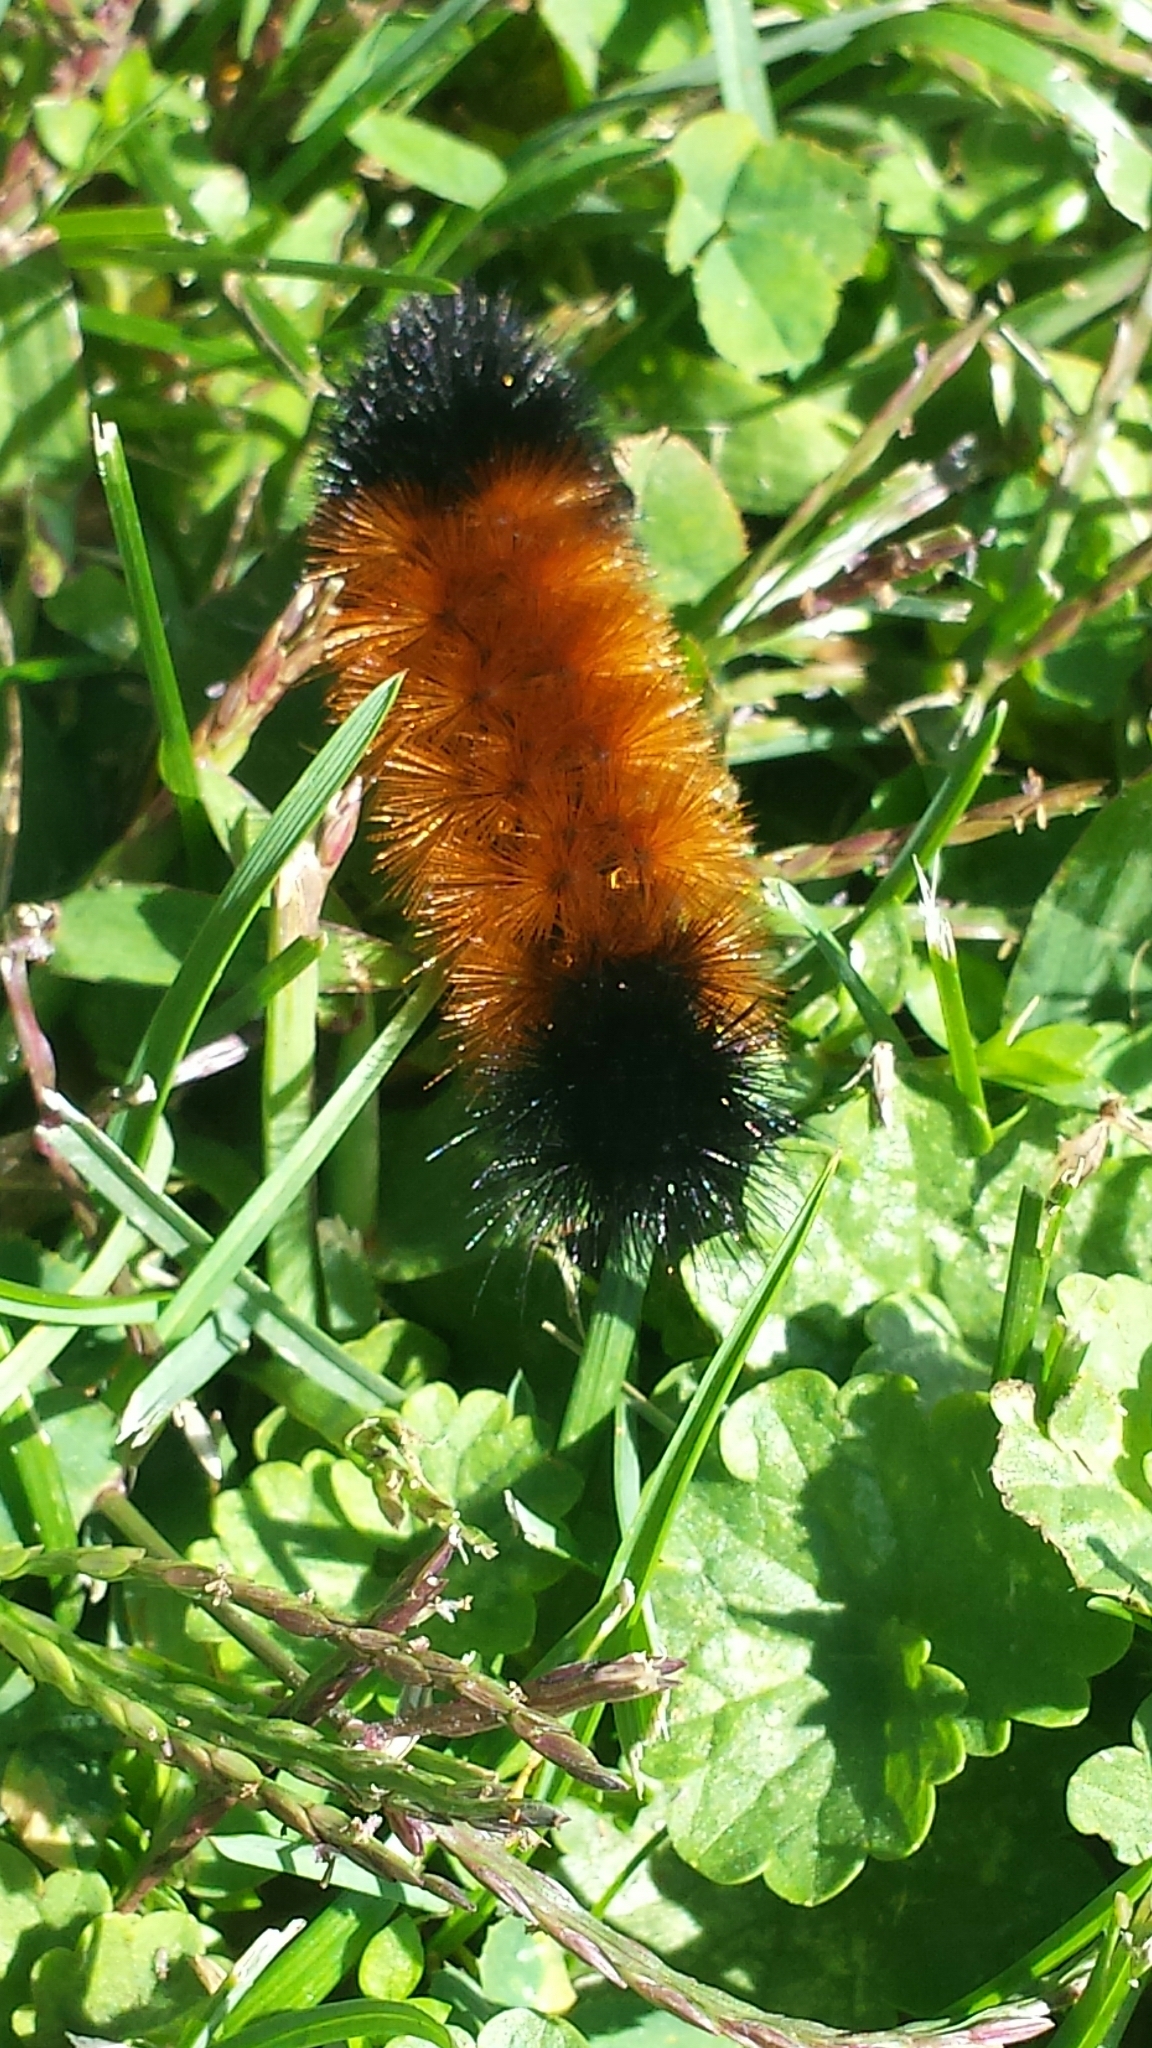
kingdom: Animalia
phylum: Arthropoda
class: Insecta
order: Lepidoptera
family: Erebidae
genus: Pyrrharctia
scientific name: Pyrrharctia isabella
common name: Isabella tiger moth
